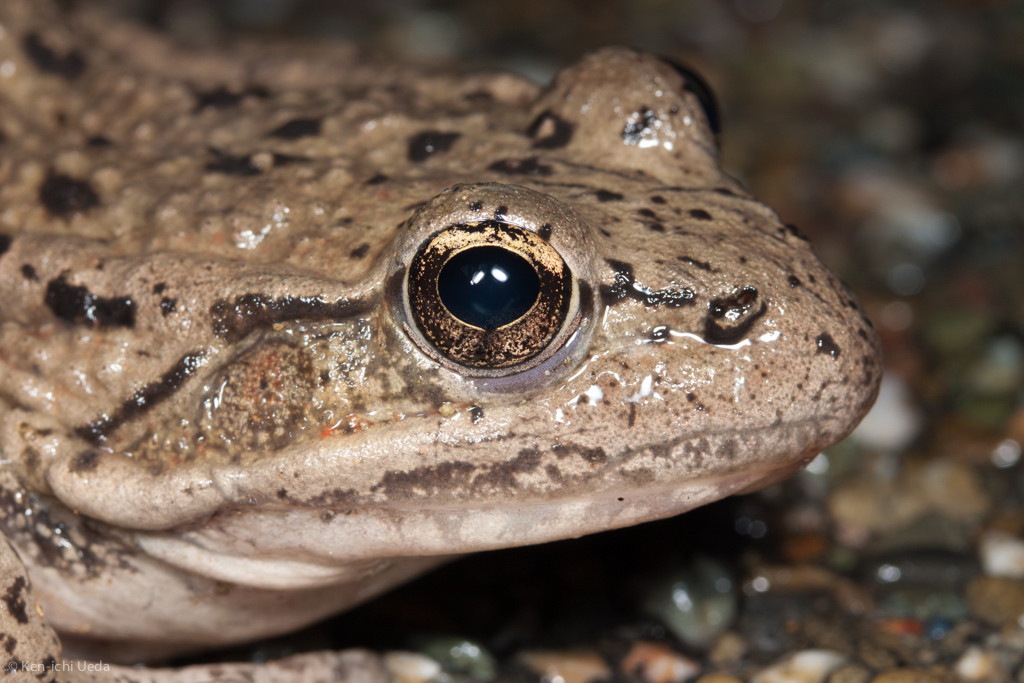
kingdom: Animalia
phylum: Chordata
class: Amphibia
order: Anura
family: Ranidae
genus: Rana
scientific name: Rana draytonii
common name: California red-legged frog
